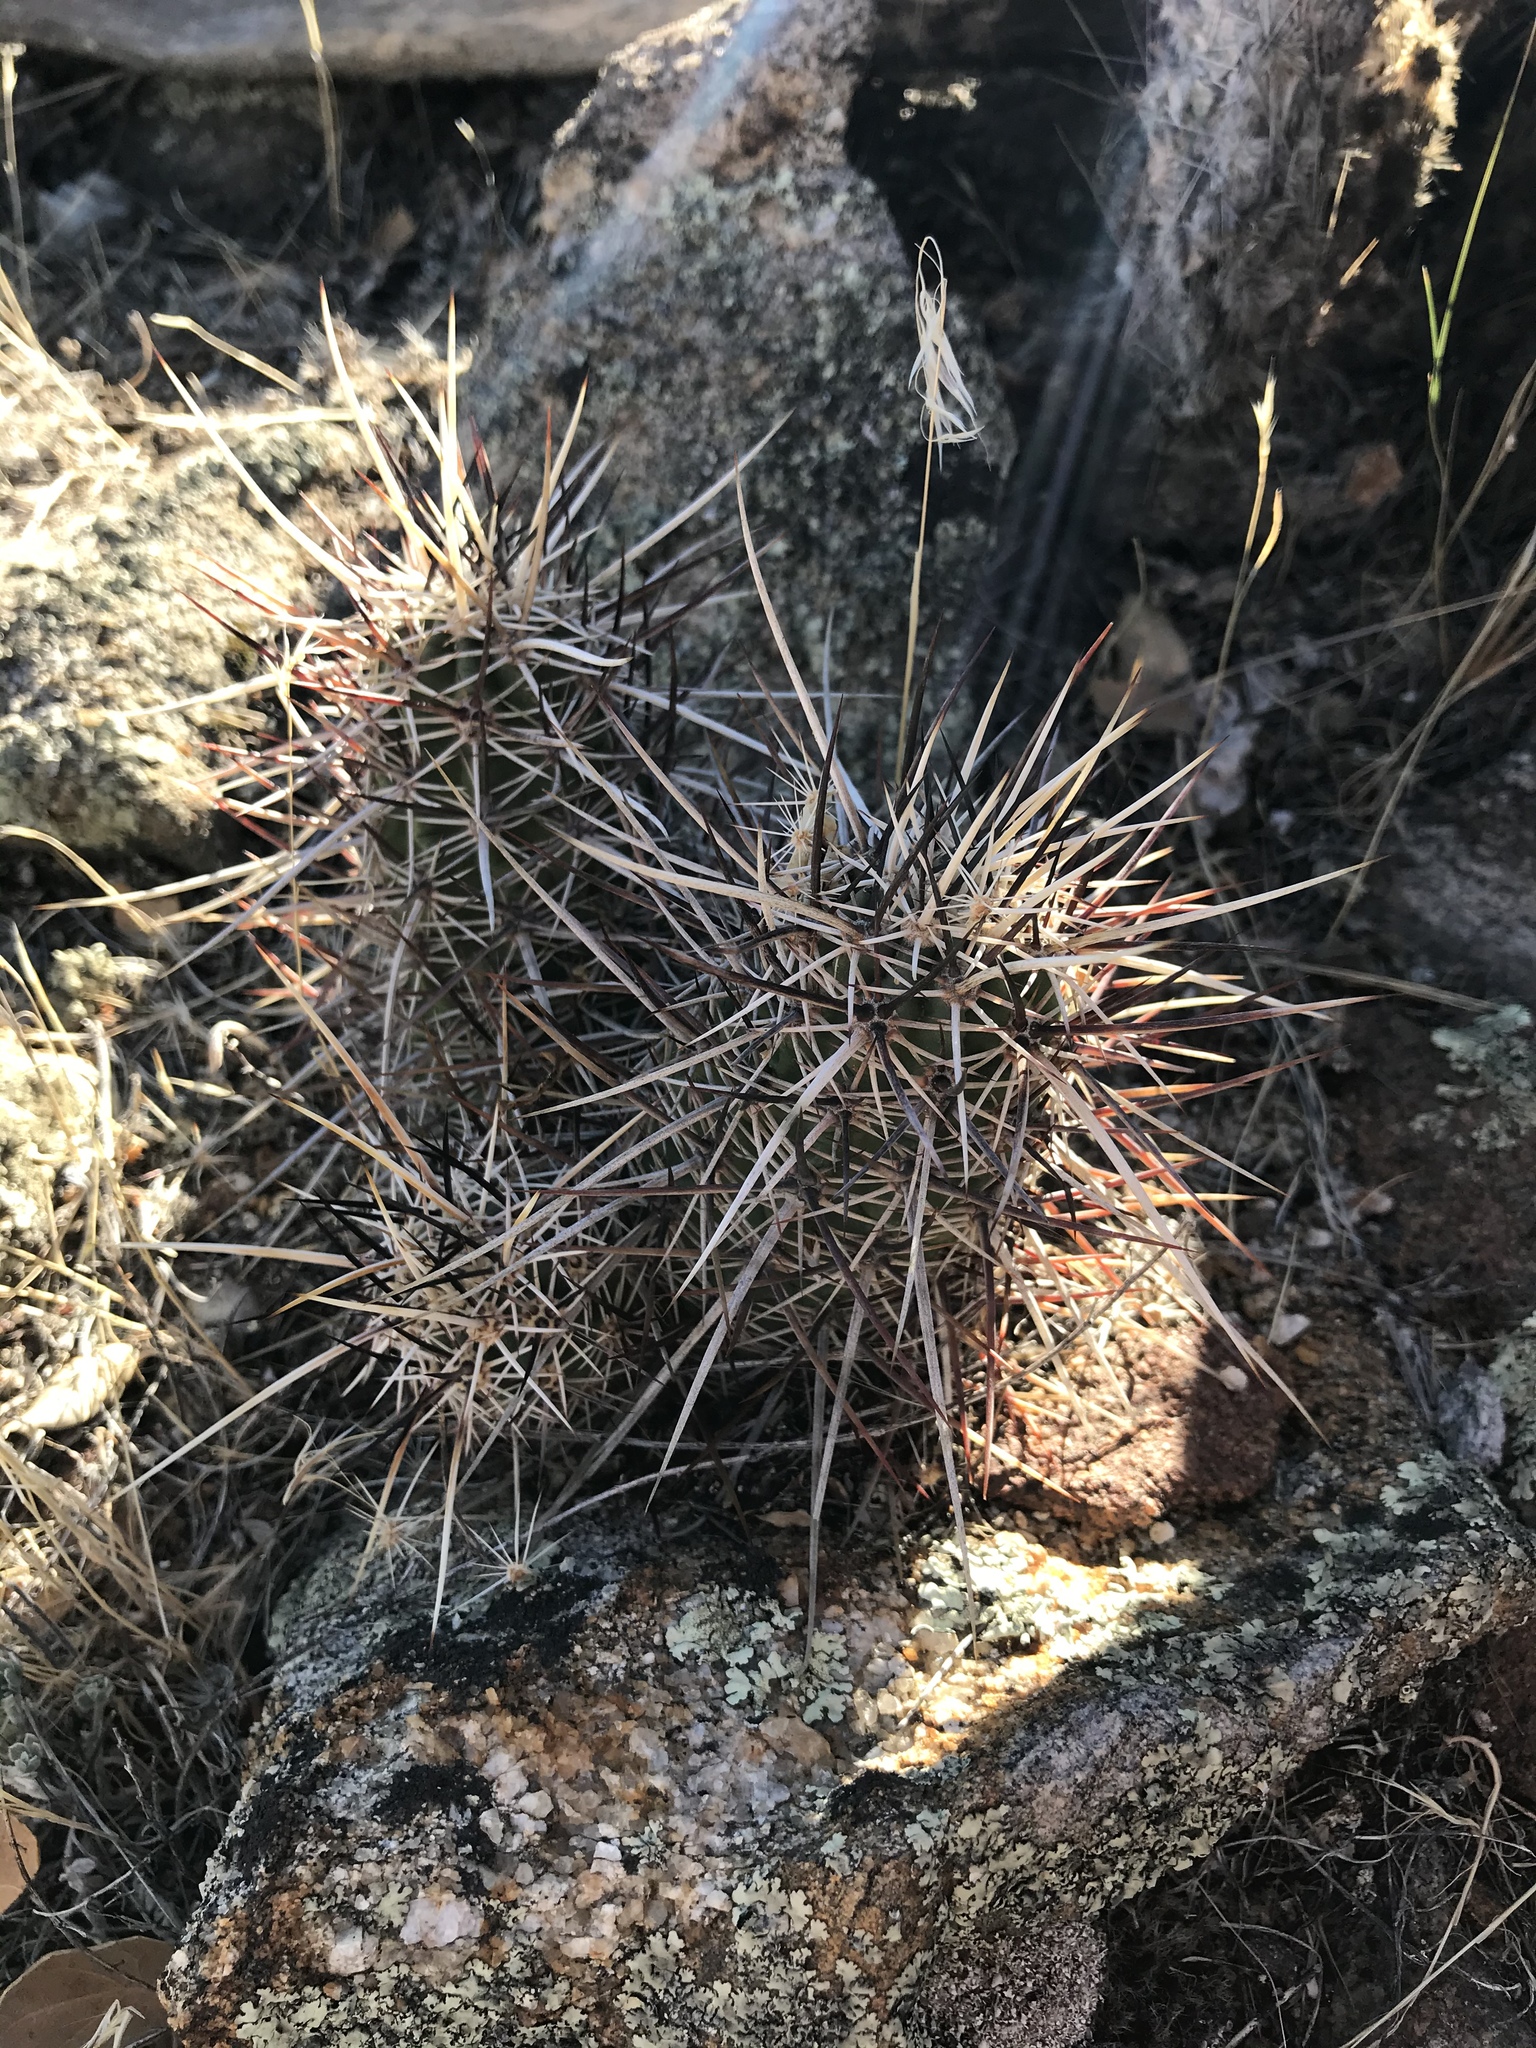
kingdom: Plantae
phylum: Tracheophyta
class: Magnoliopsida
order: Caryophyllales
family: Cactaceae
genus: Echinocereus
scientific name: Echinocereus engelmannii
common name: Engelmann's hedgehog cactus
